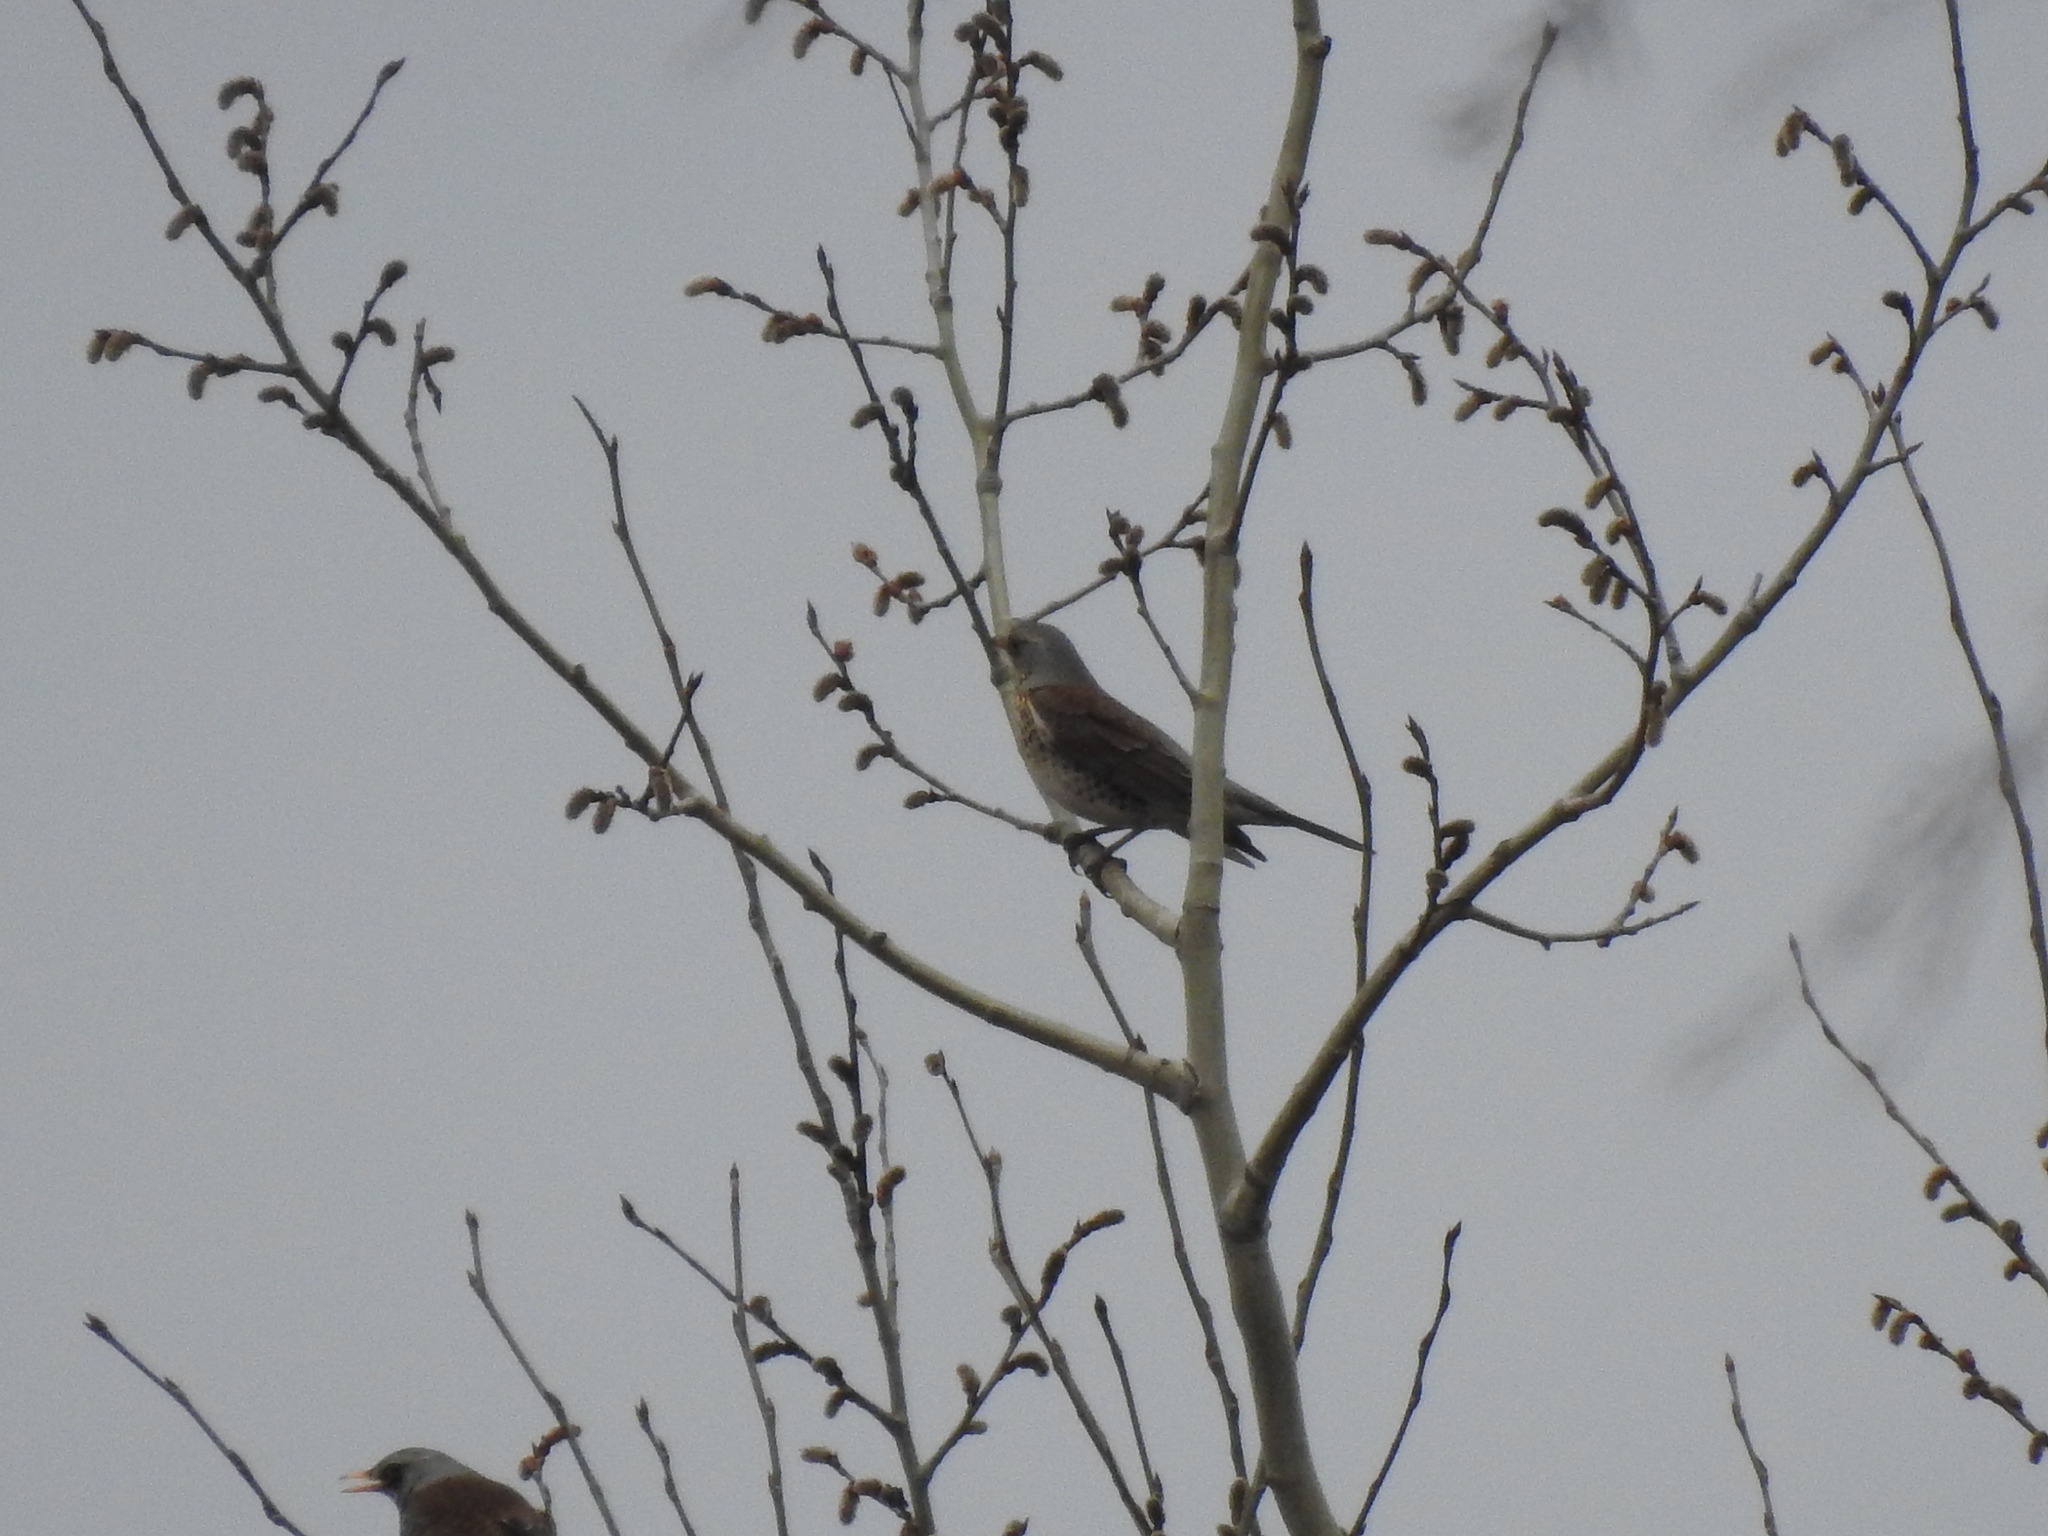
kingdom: Animalia
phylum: Chordata
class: Aves
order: Passeriformes
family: Turdidae
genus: Turdus
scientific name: Turdus pilaris
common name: Fieldfare
